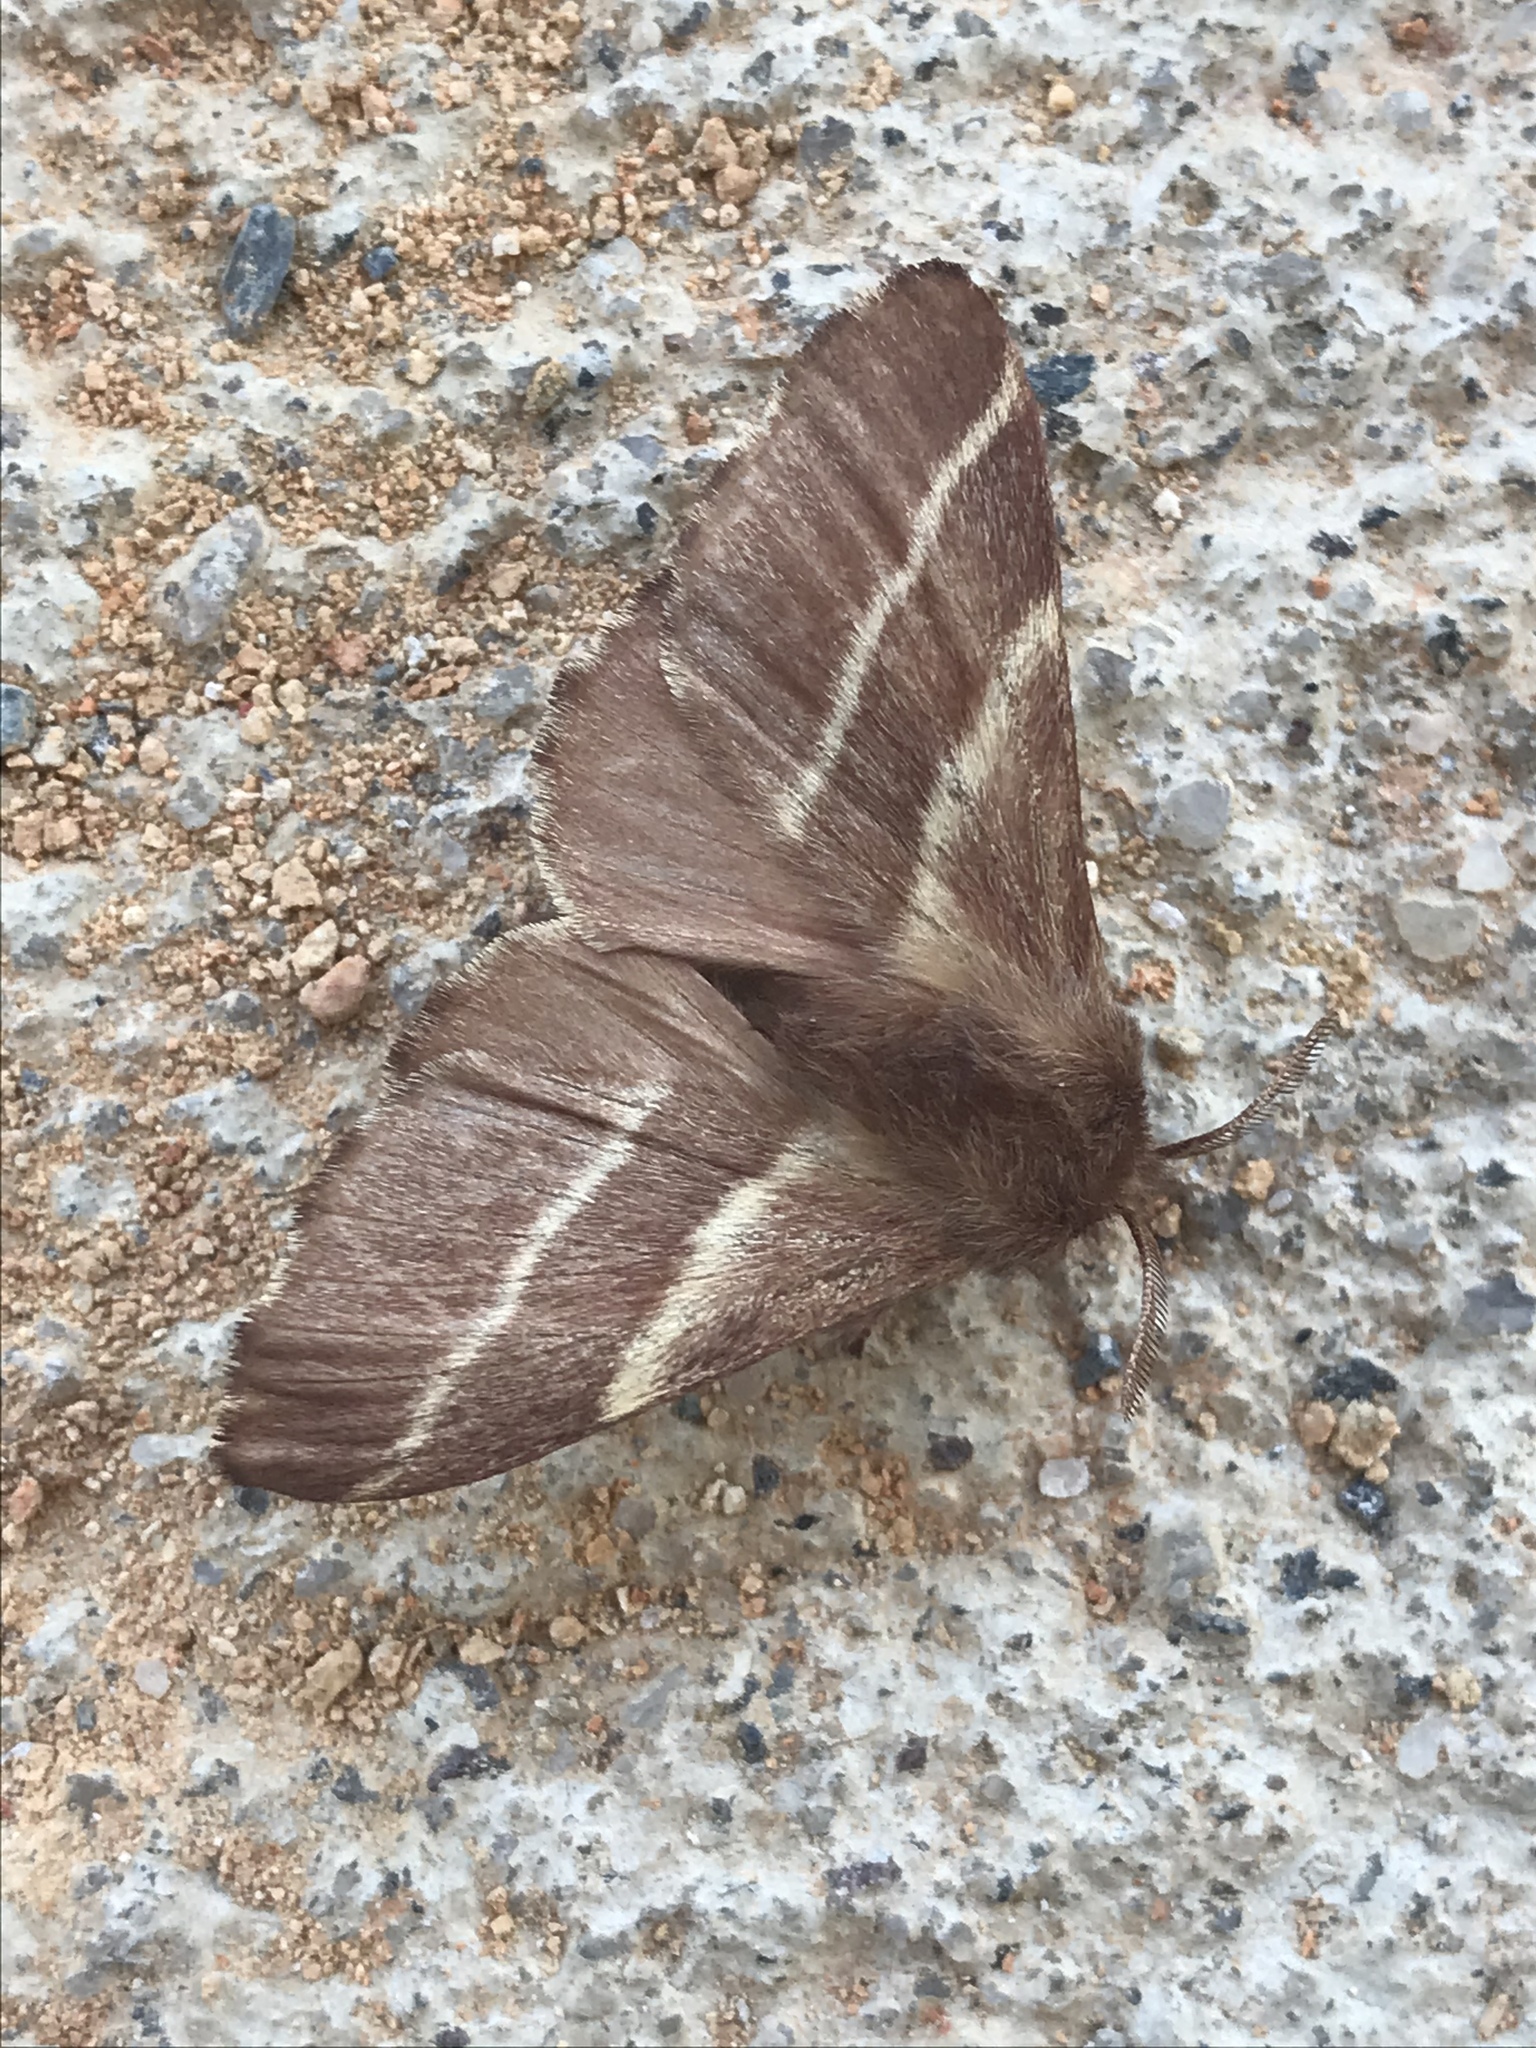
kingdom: Animalia
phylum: Arthropoda
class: Insecta
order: Lepidoptera
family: Lasiocampidae
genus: Malacosoma
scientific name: Malacosoma americana
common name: Eastern tent caterpillar moth
